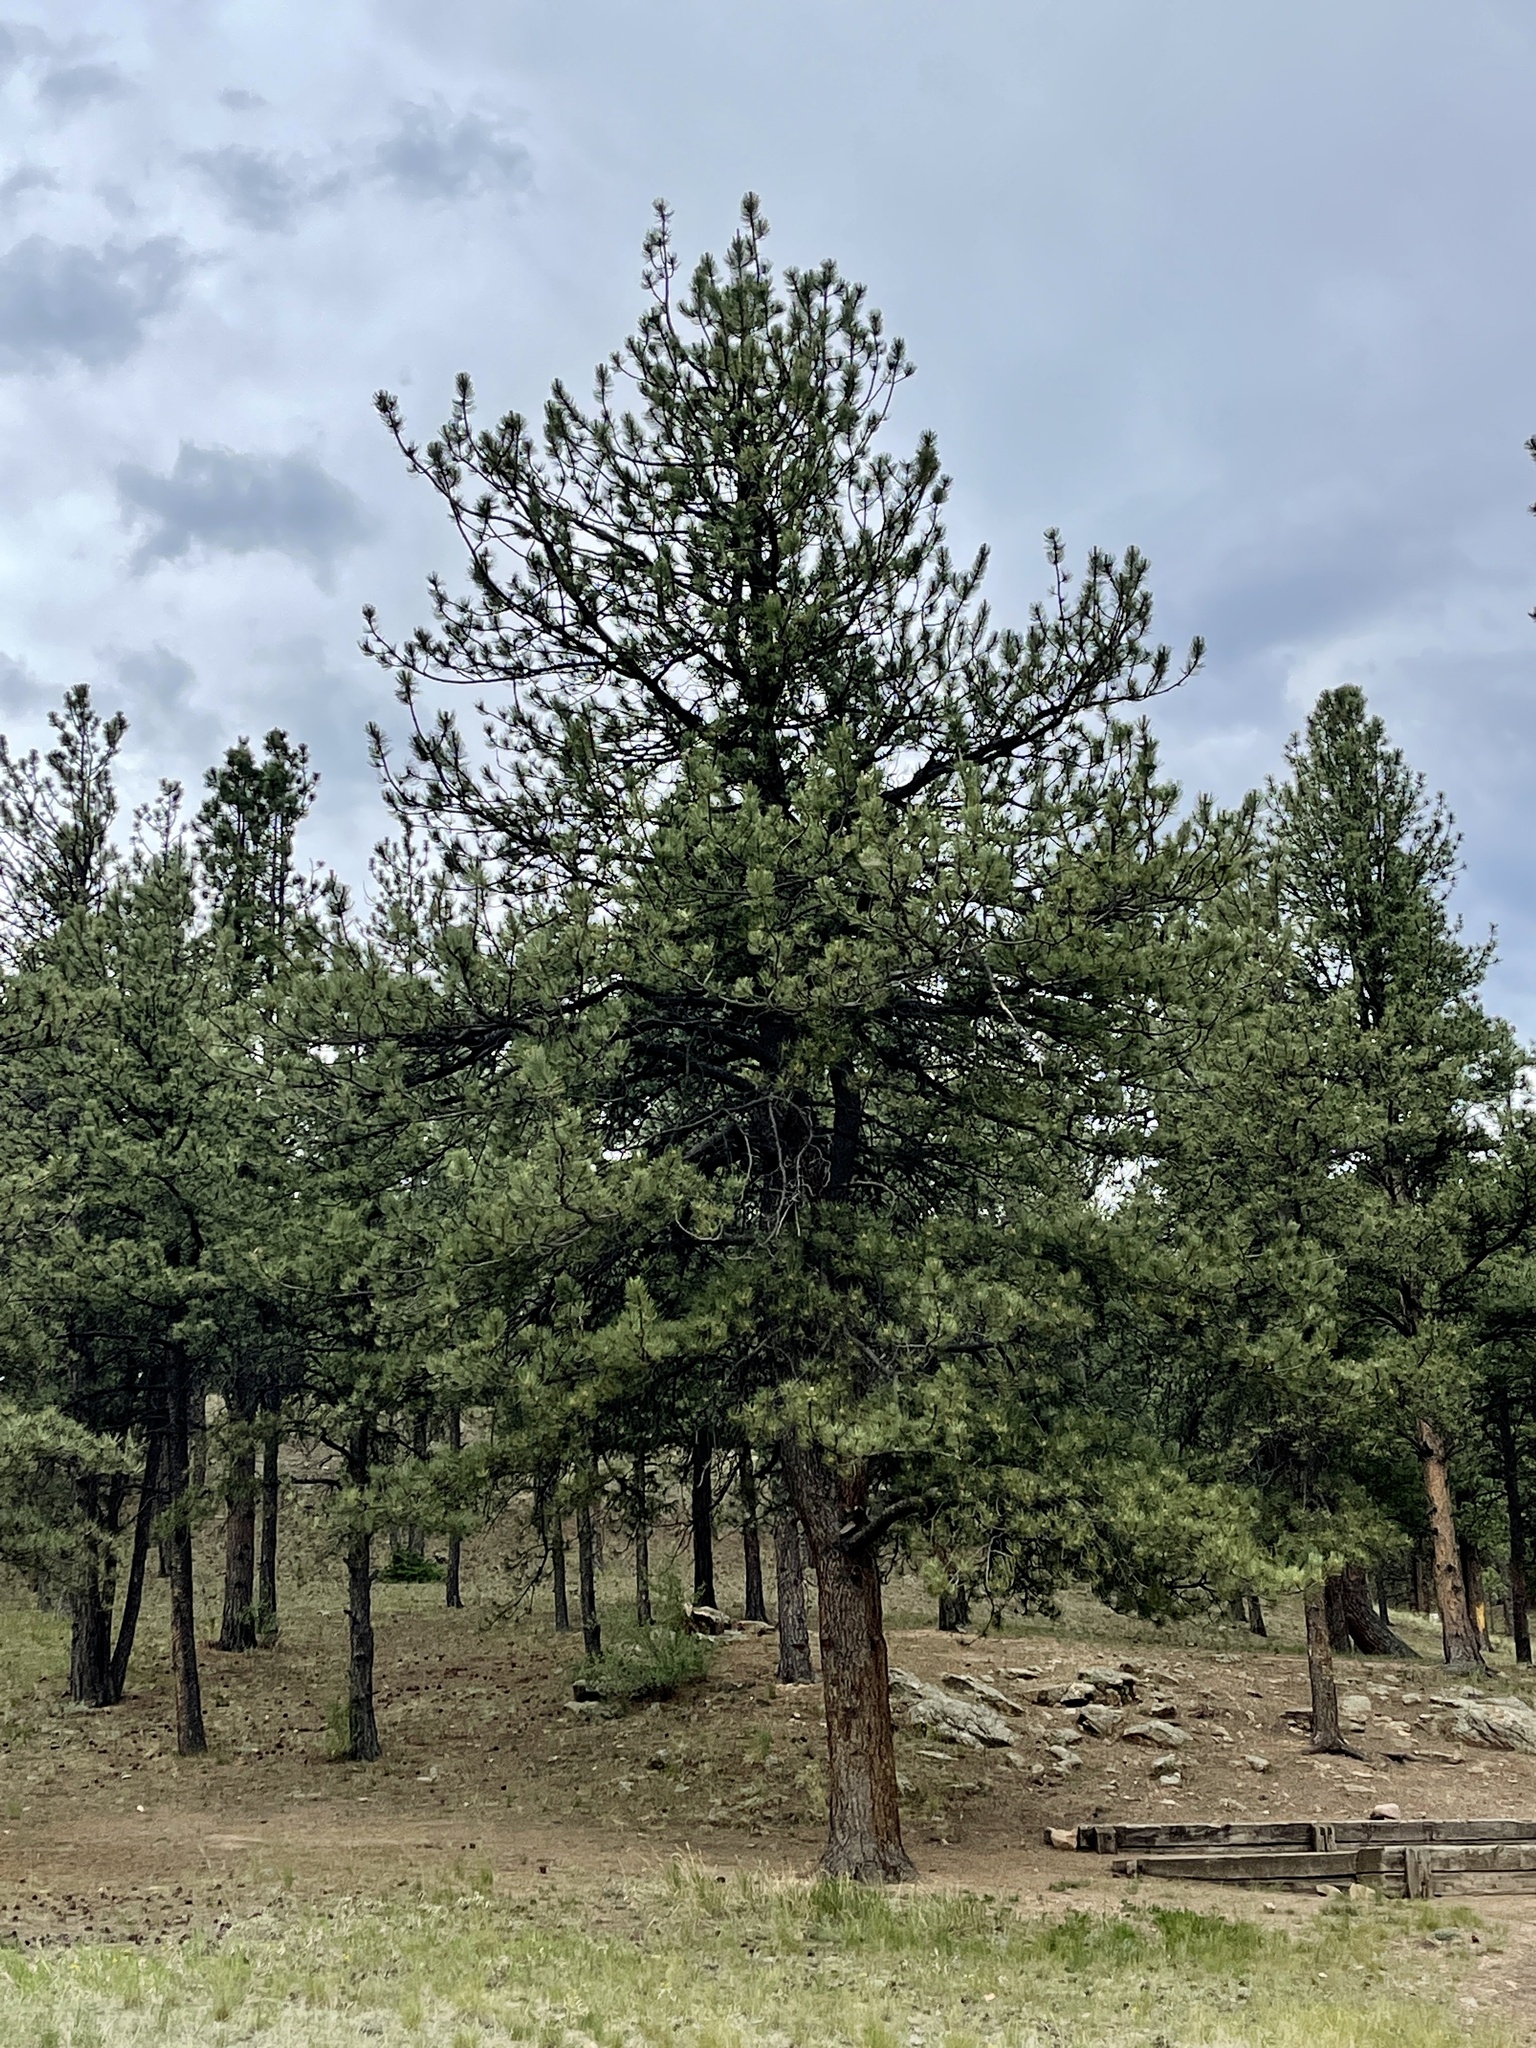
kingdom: Plantae
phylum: Tracheophyta
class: Pinopsida
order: Pinales
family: Pinaceae
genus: Pinus
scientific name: Pinus ponderosa
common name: Western yellow-pine
